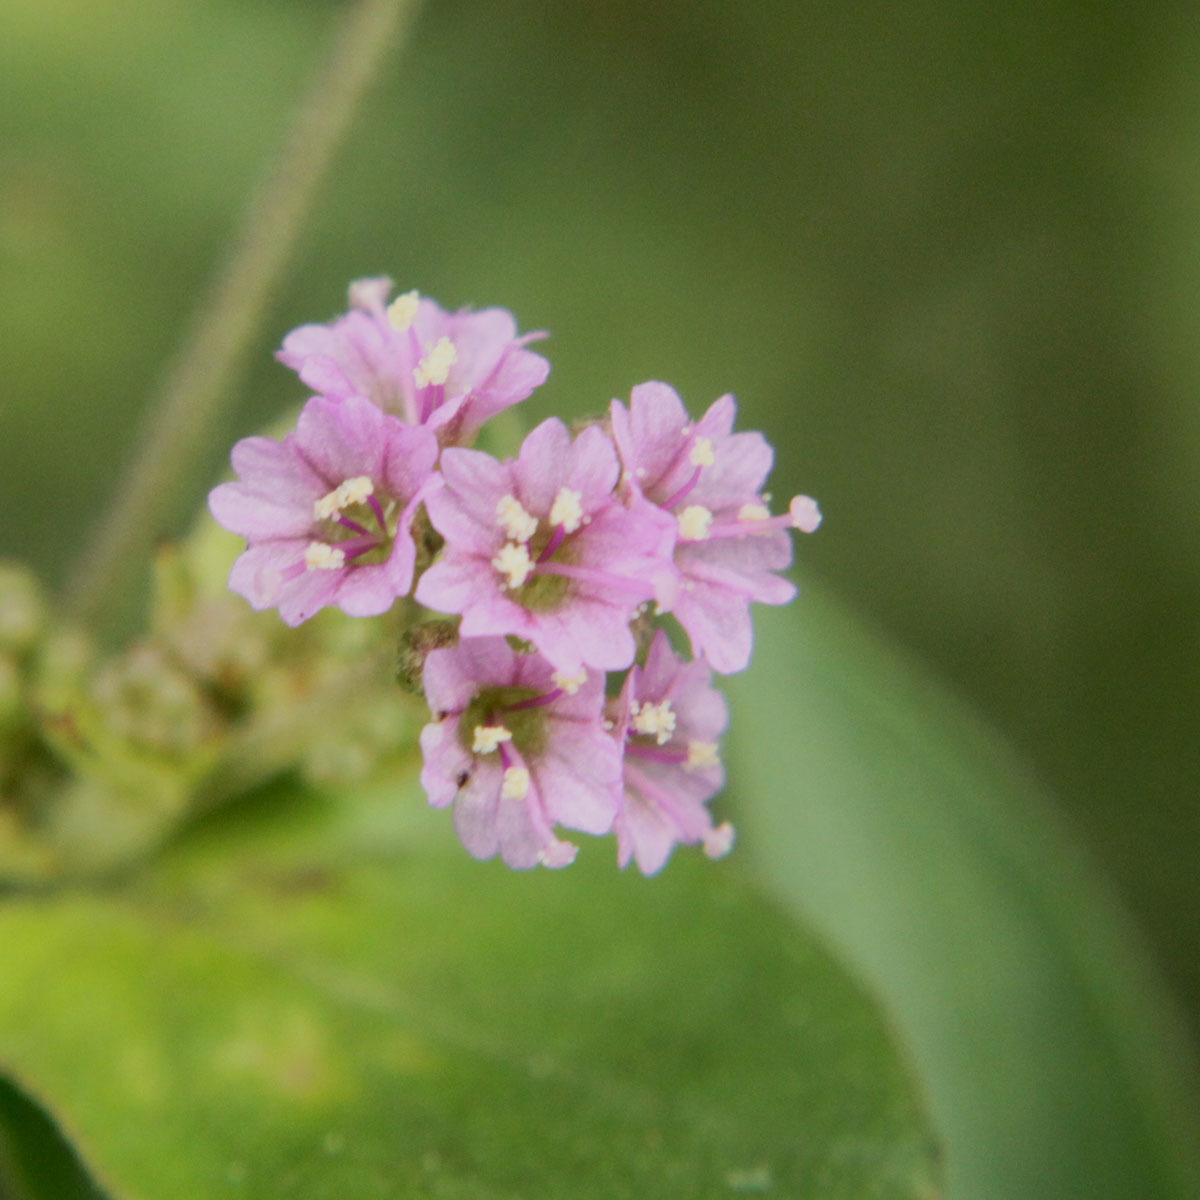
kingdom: Plantae
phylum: Tracheophyta
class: Magnoliopsida
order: Caryophyllales
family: Nyctaginaceae
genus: Boerhavia
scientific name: Boerhavia diffusa
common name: Red spiderling
